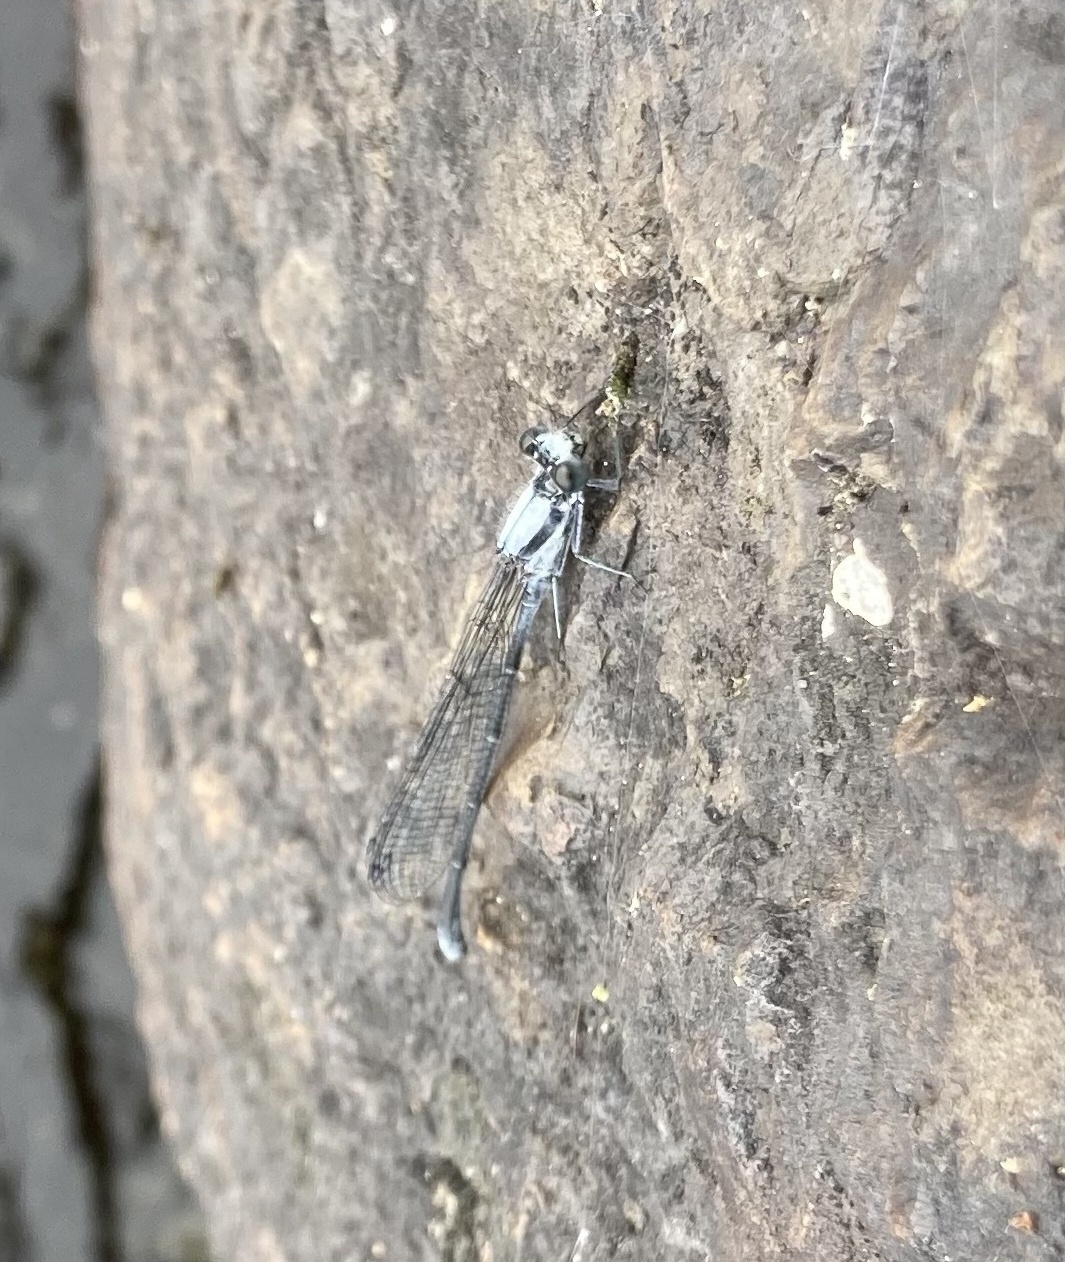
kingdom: Animalia
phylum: Arthropoda
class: Insecta
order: Odonata
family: Coenagrionidae
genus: Argia
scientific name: Argia moesta
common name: Powdered dancer
